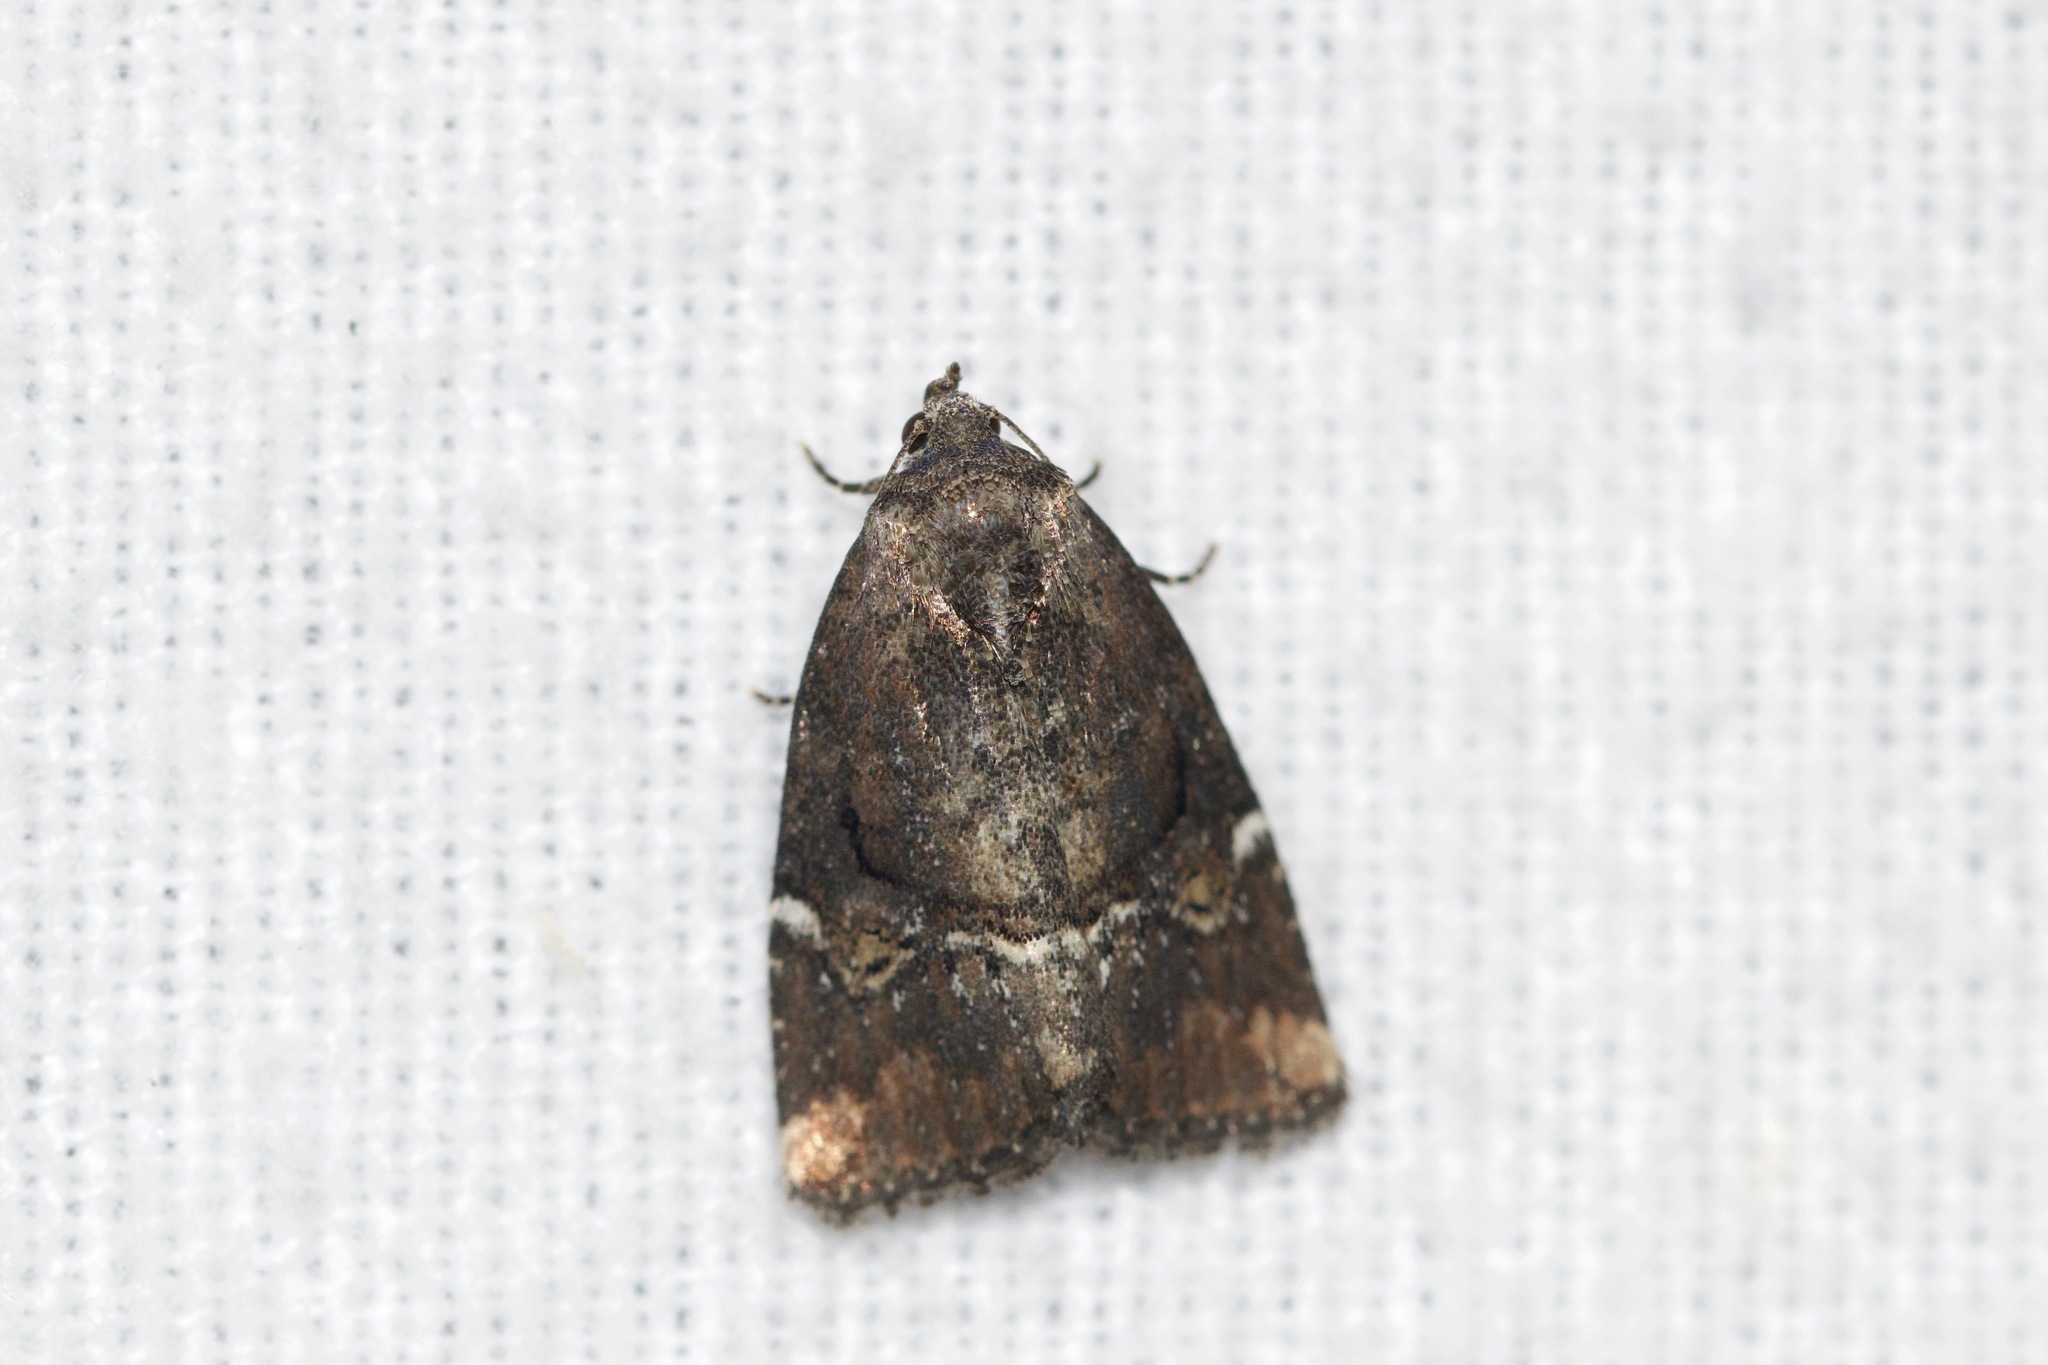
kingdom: Animalia
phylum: Arthropoda
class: Insecta
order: Lepidoptera
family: Noctuidae
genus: Elaphria
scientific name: Elaphria versicolor
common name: Fir harlequin
